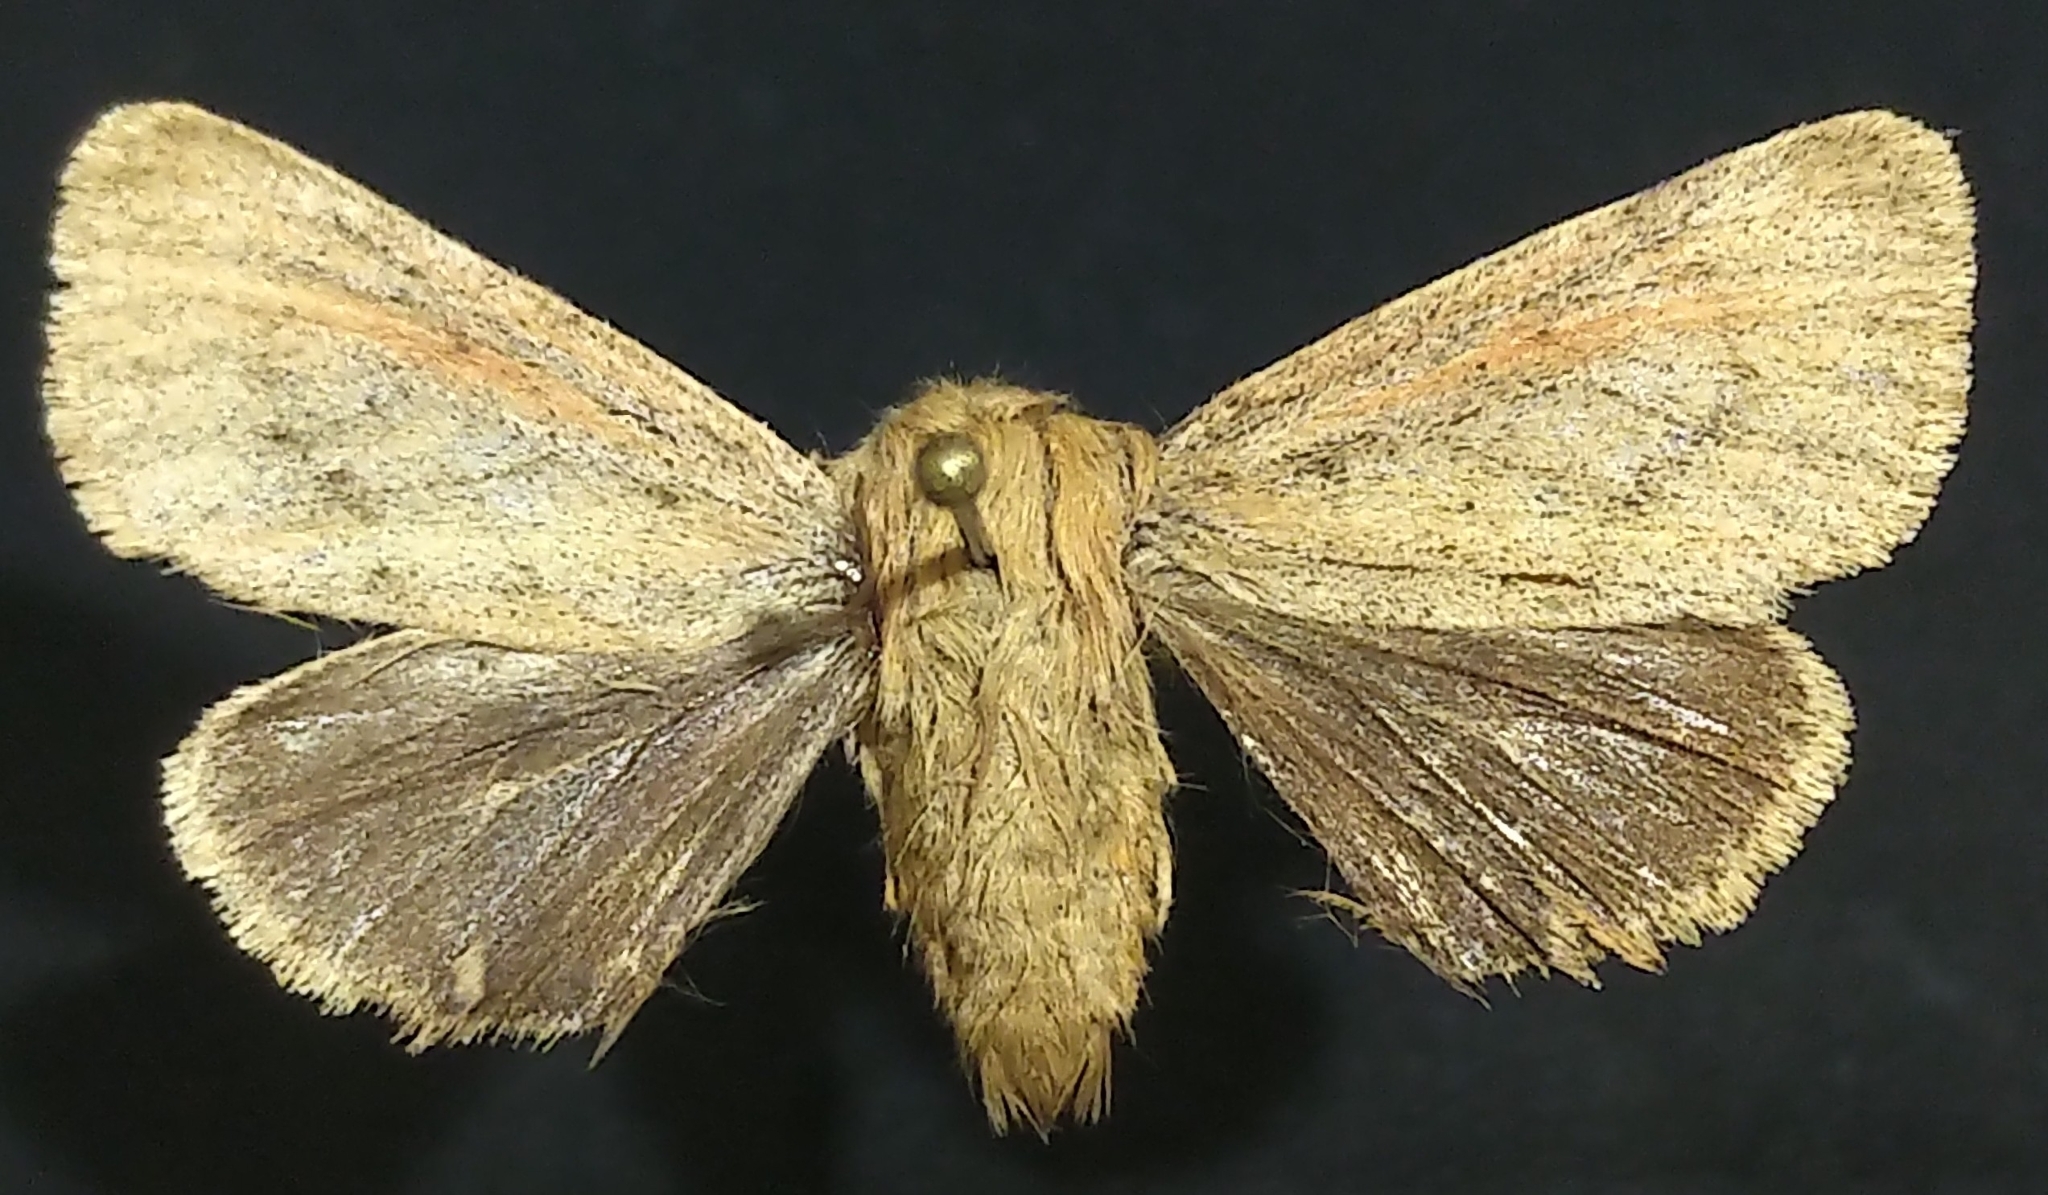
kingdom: Animalia
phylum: Arthropoda
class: Insecta
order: Lepidoptera
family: Erebidae
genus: Spilosoma
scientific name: Spilosoma vagans
